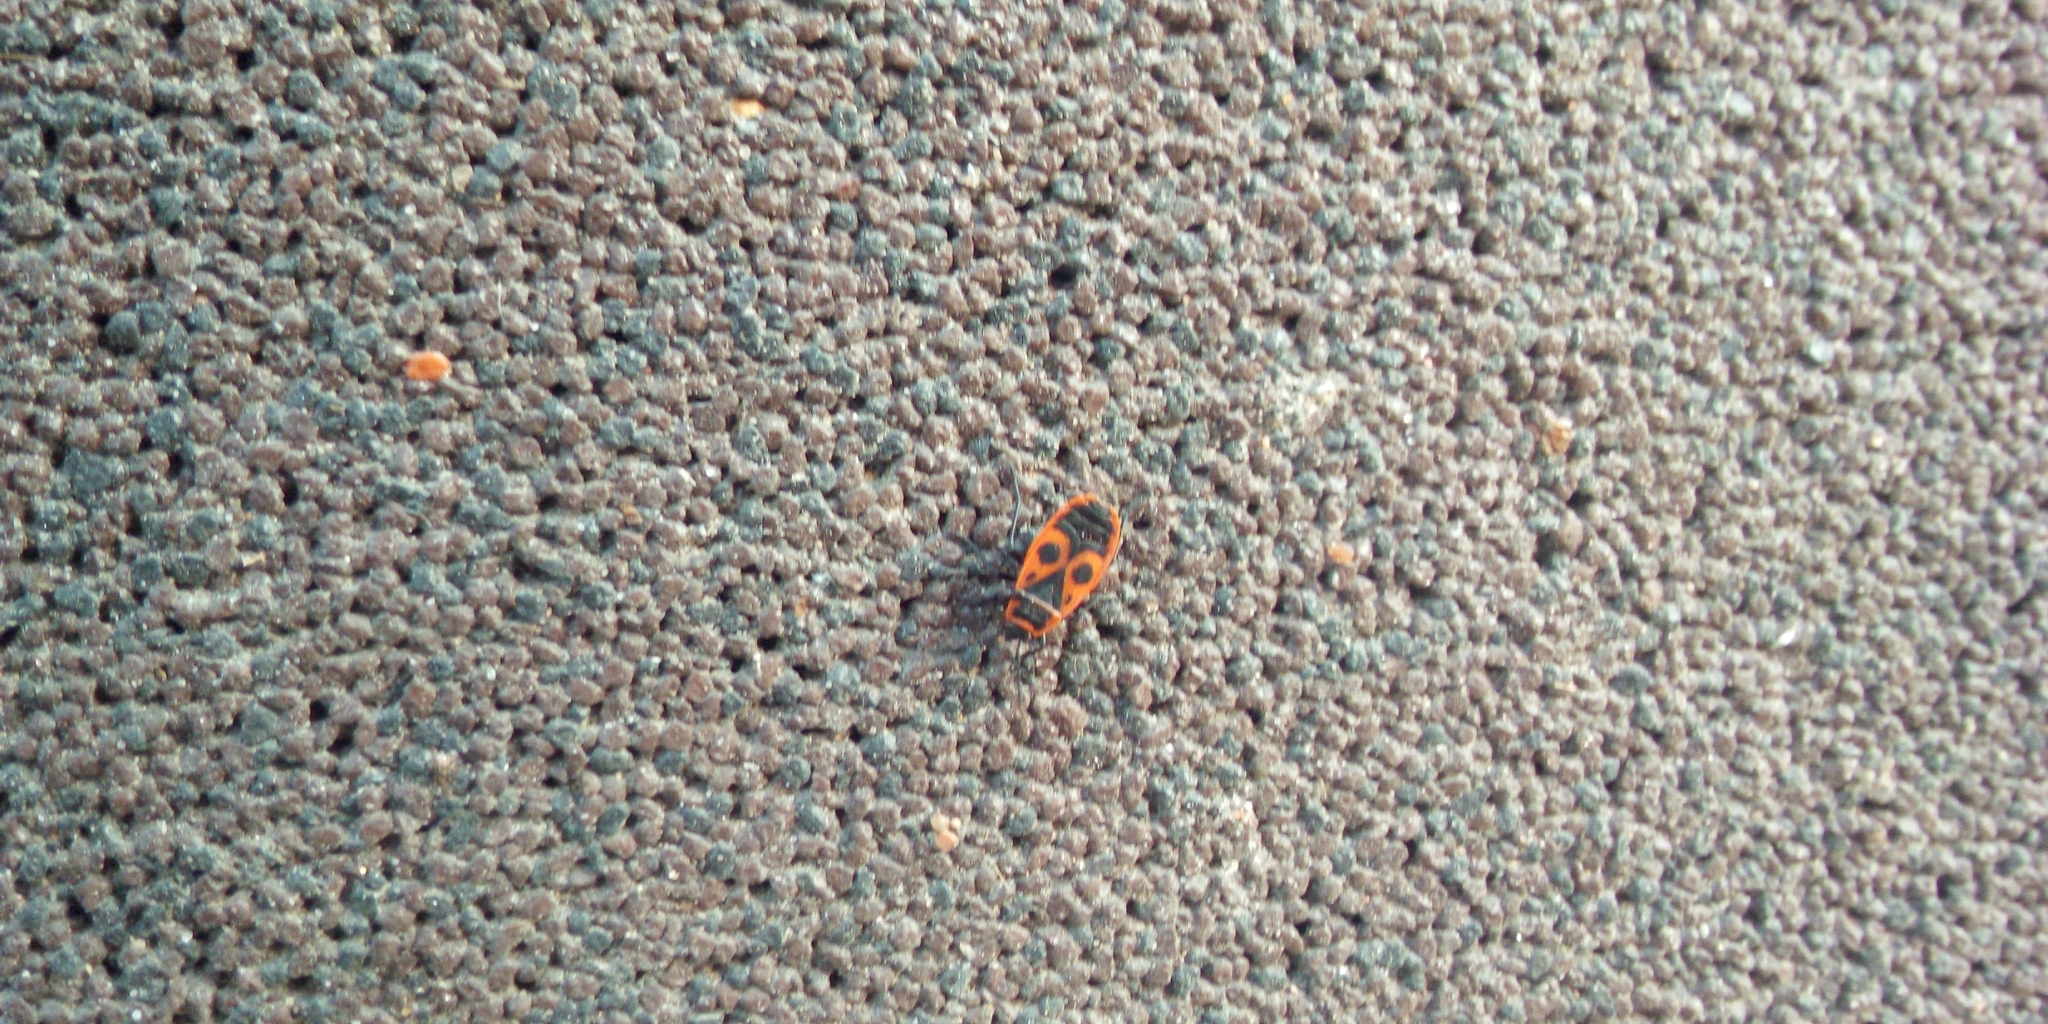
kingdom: Animalia
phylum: Arthropoda
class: Insecta
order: Hemiptera
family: Pyrrhocoridae
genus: Pyrrhocoris
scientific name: Pyrrhocoris apterus
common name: Firebug
